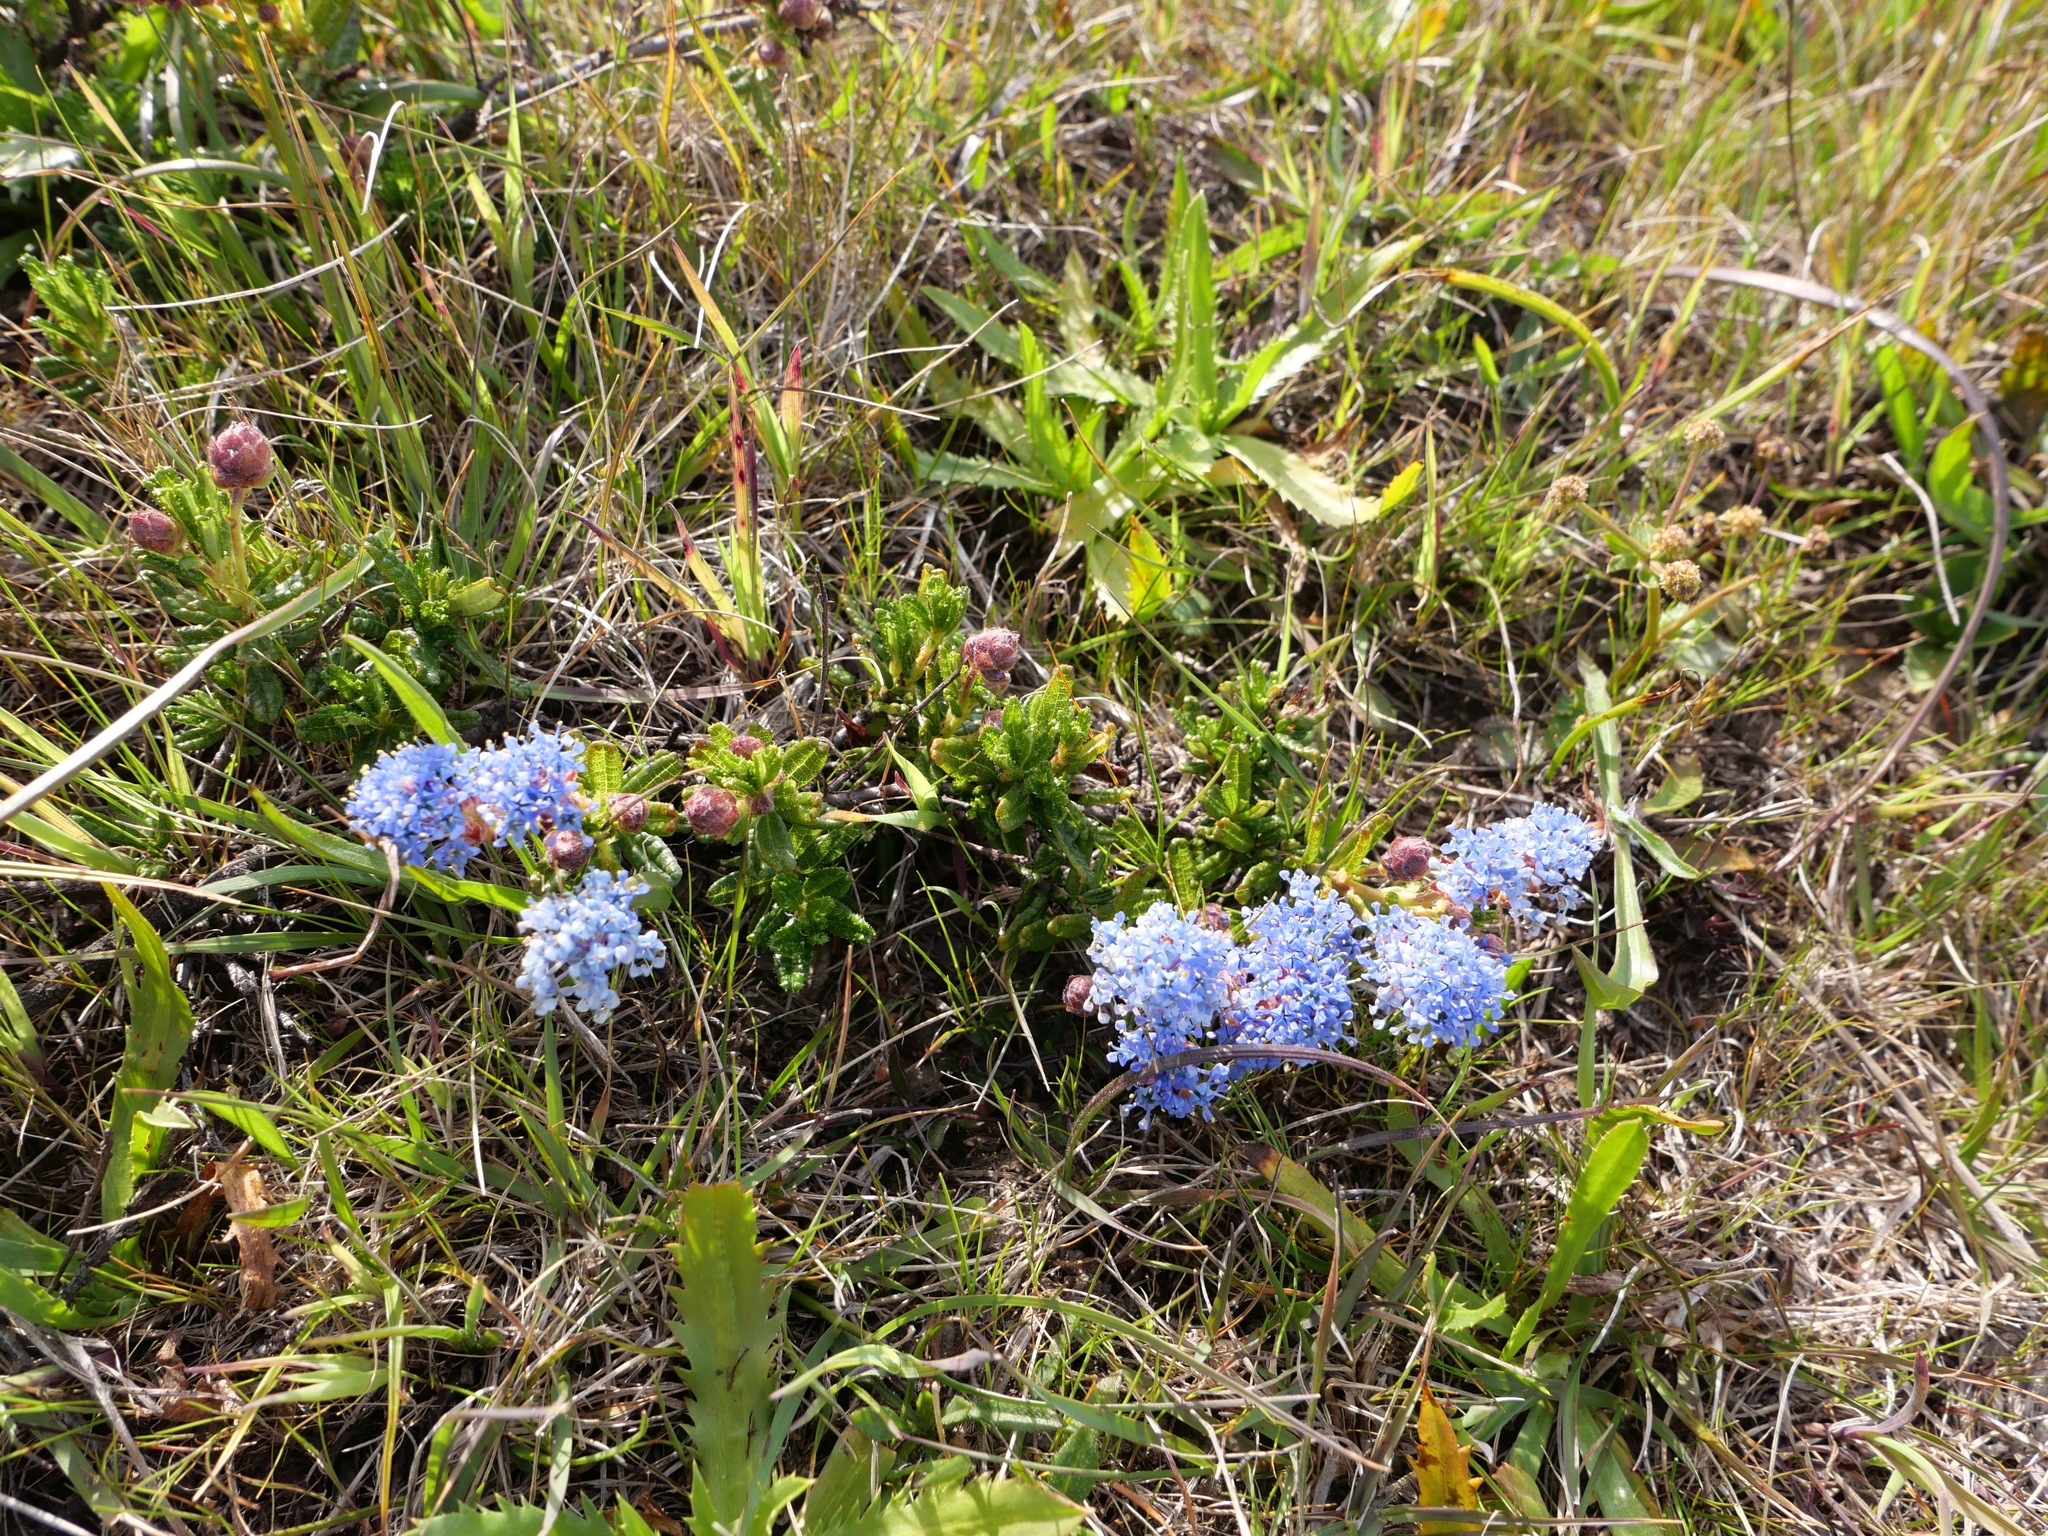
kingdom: Plantae
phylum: Tracheophyta
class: Magnoliopsida
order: Rosales
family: Rhamnaceae
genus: Ceanothus
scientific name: Ceanothus hearstiorum
